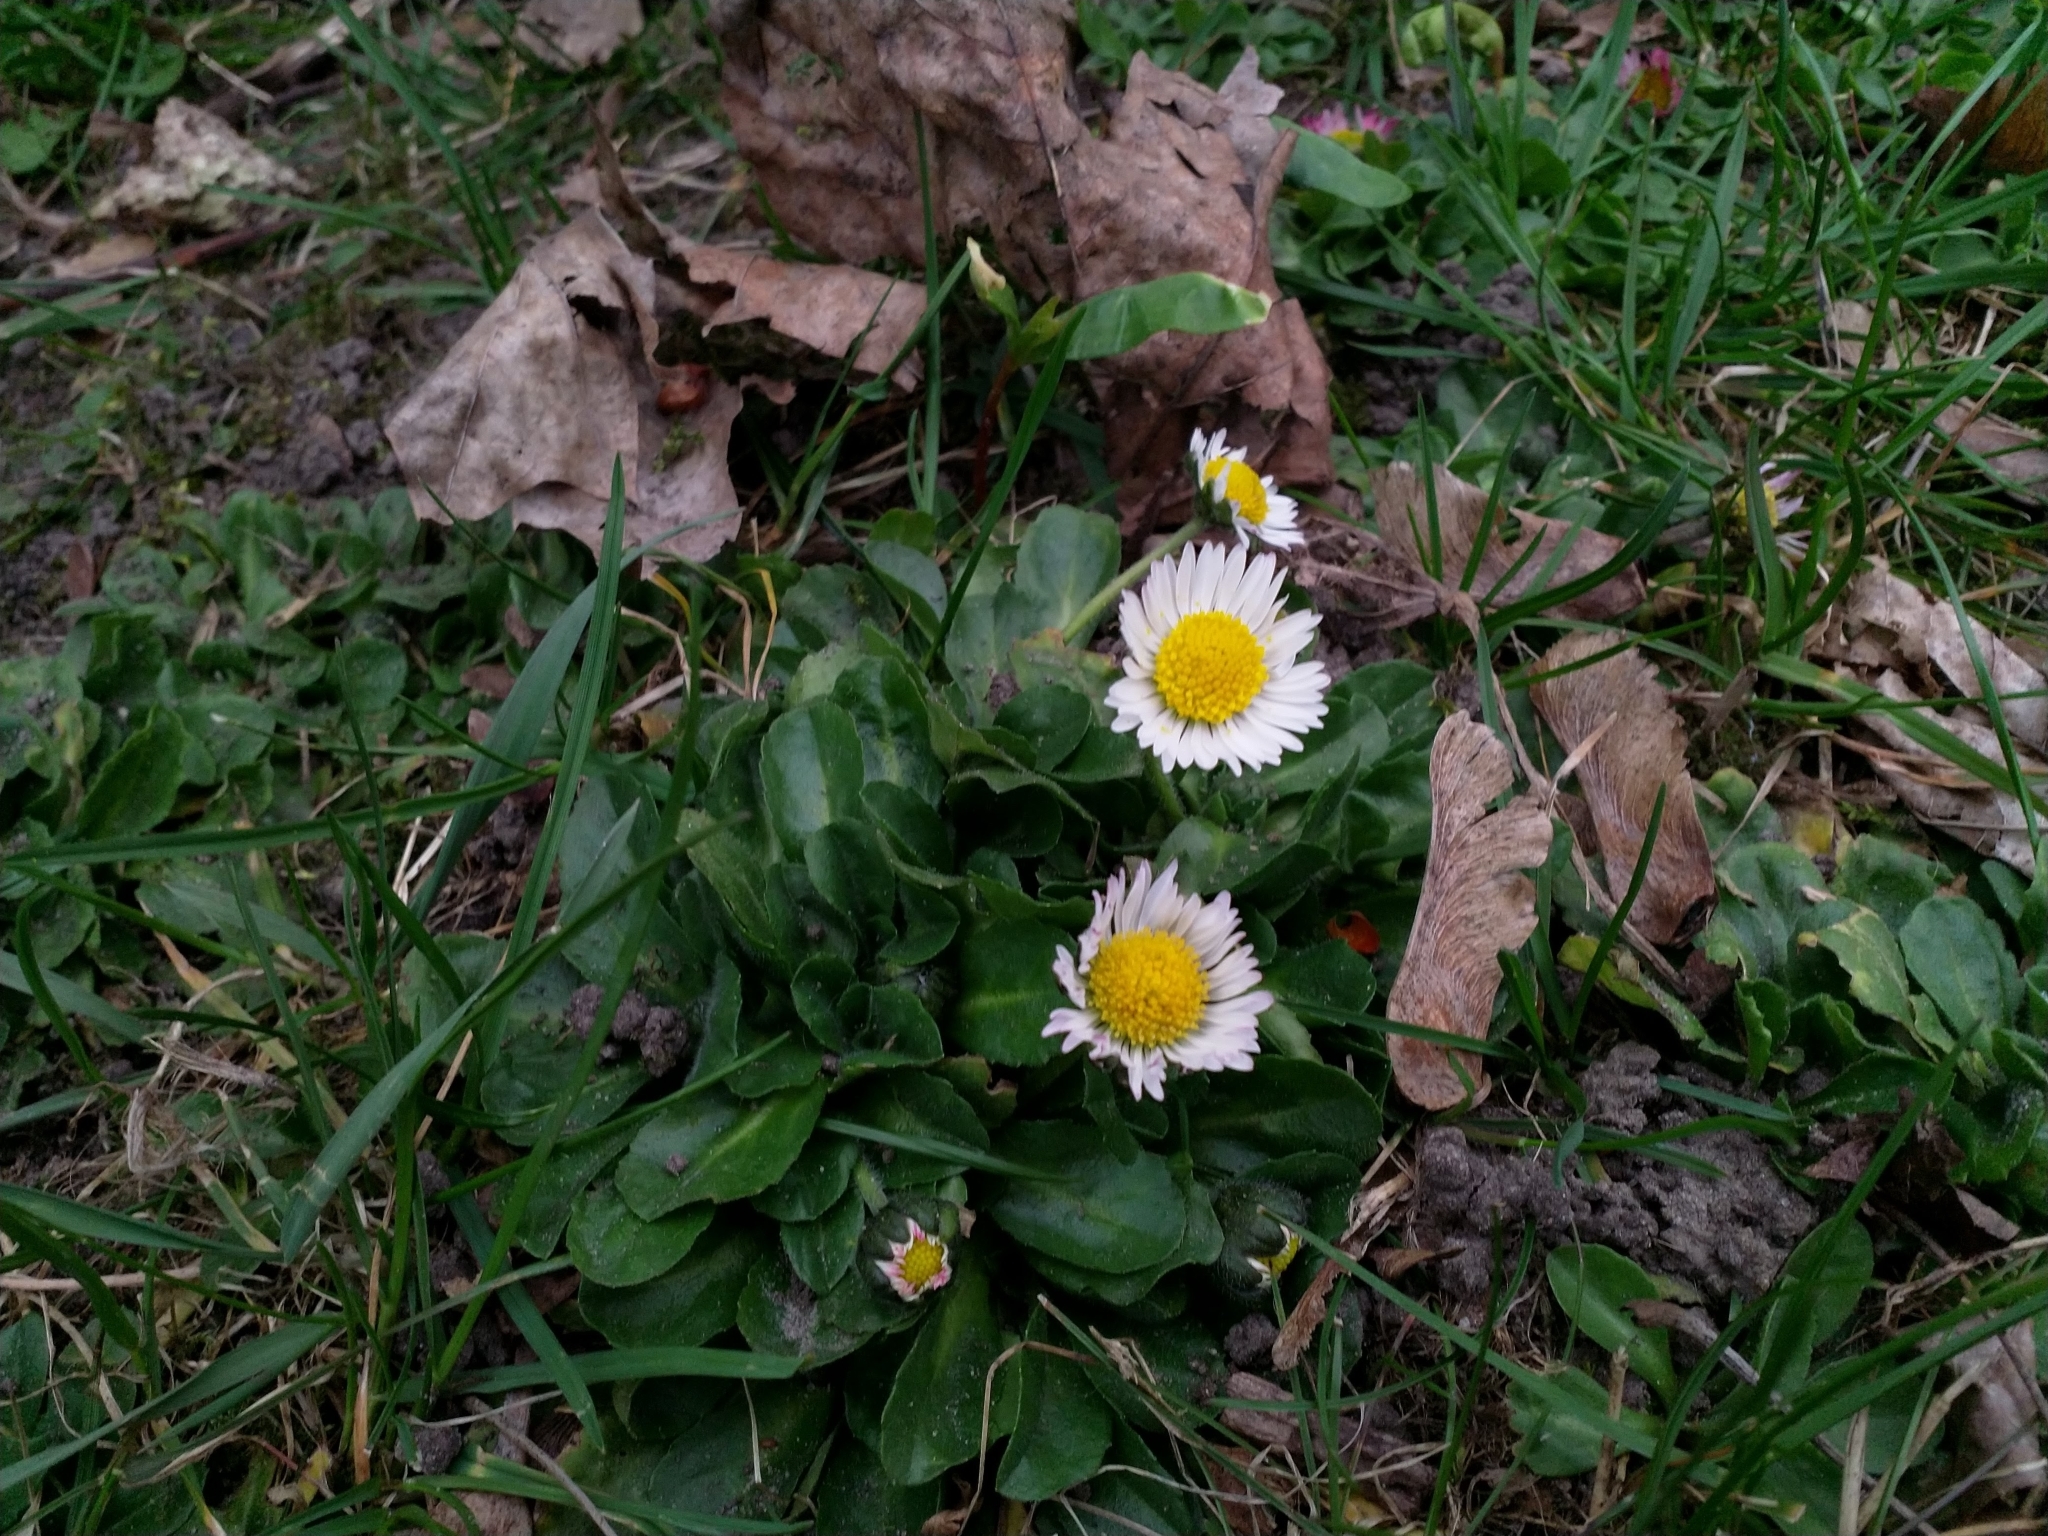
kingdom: Plantae
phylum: Tracheophyta
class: Magnoliopsida
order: Asterales
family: Asteraceae
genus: Bellis
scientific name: Bellis perennis
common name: Lawndaisy
